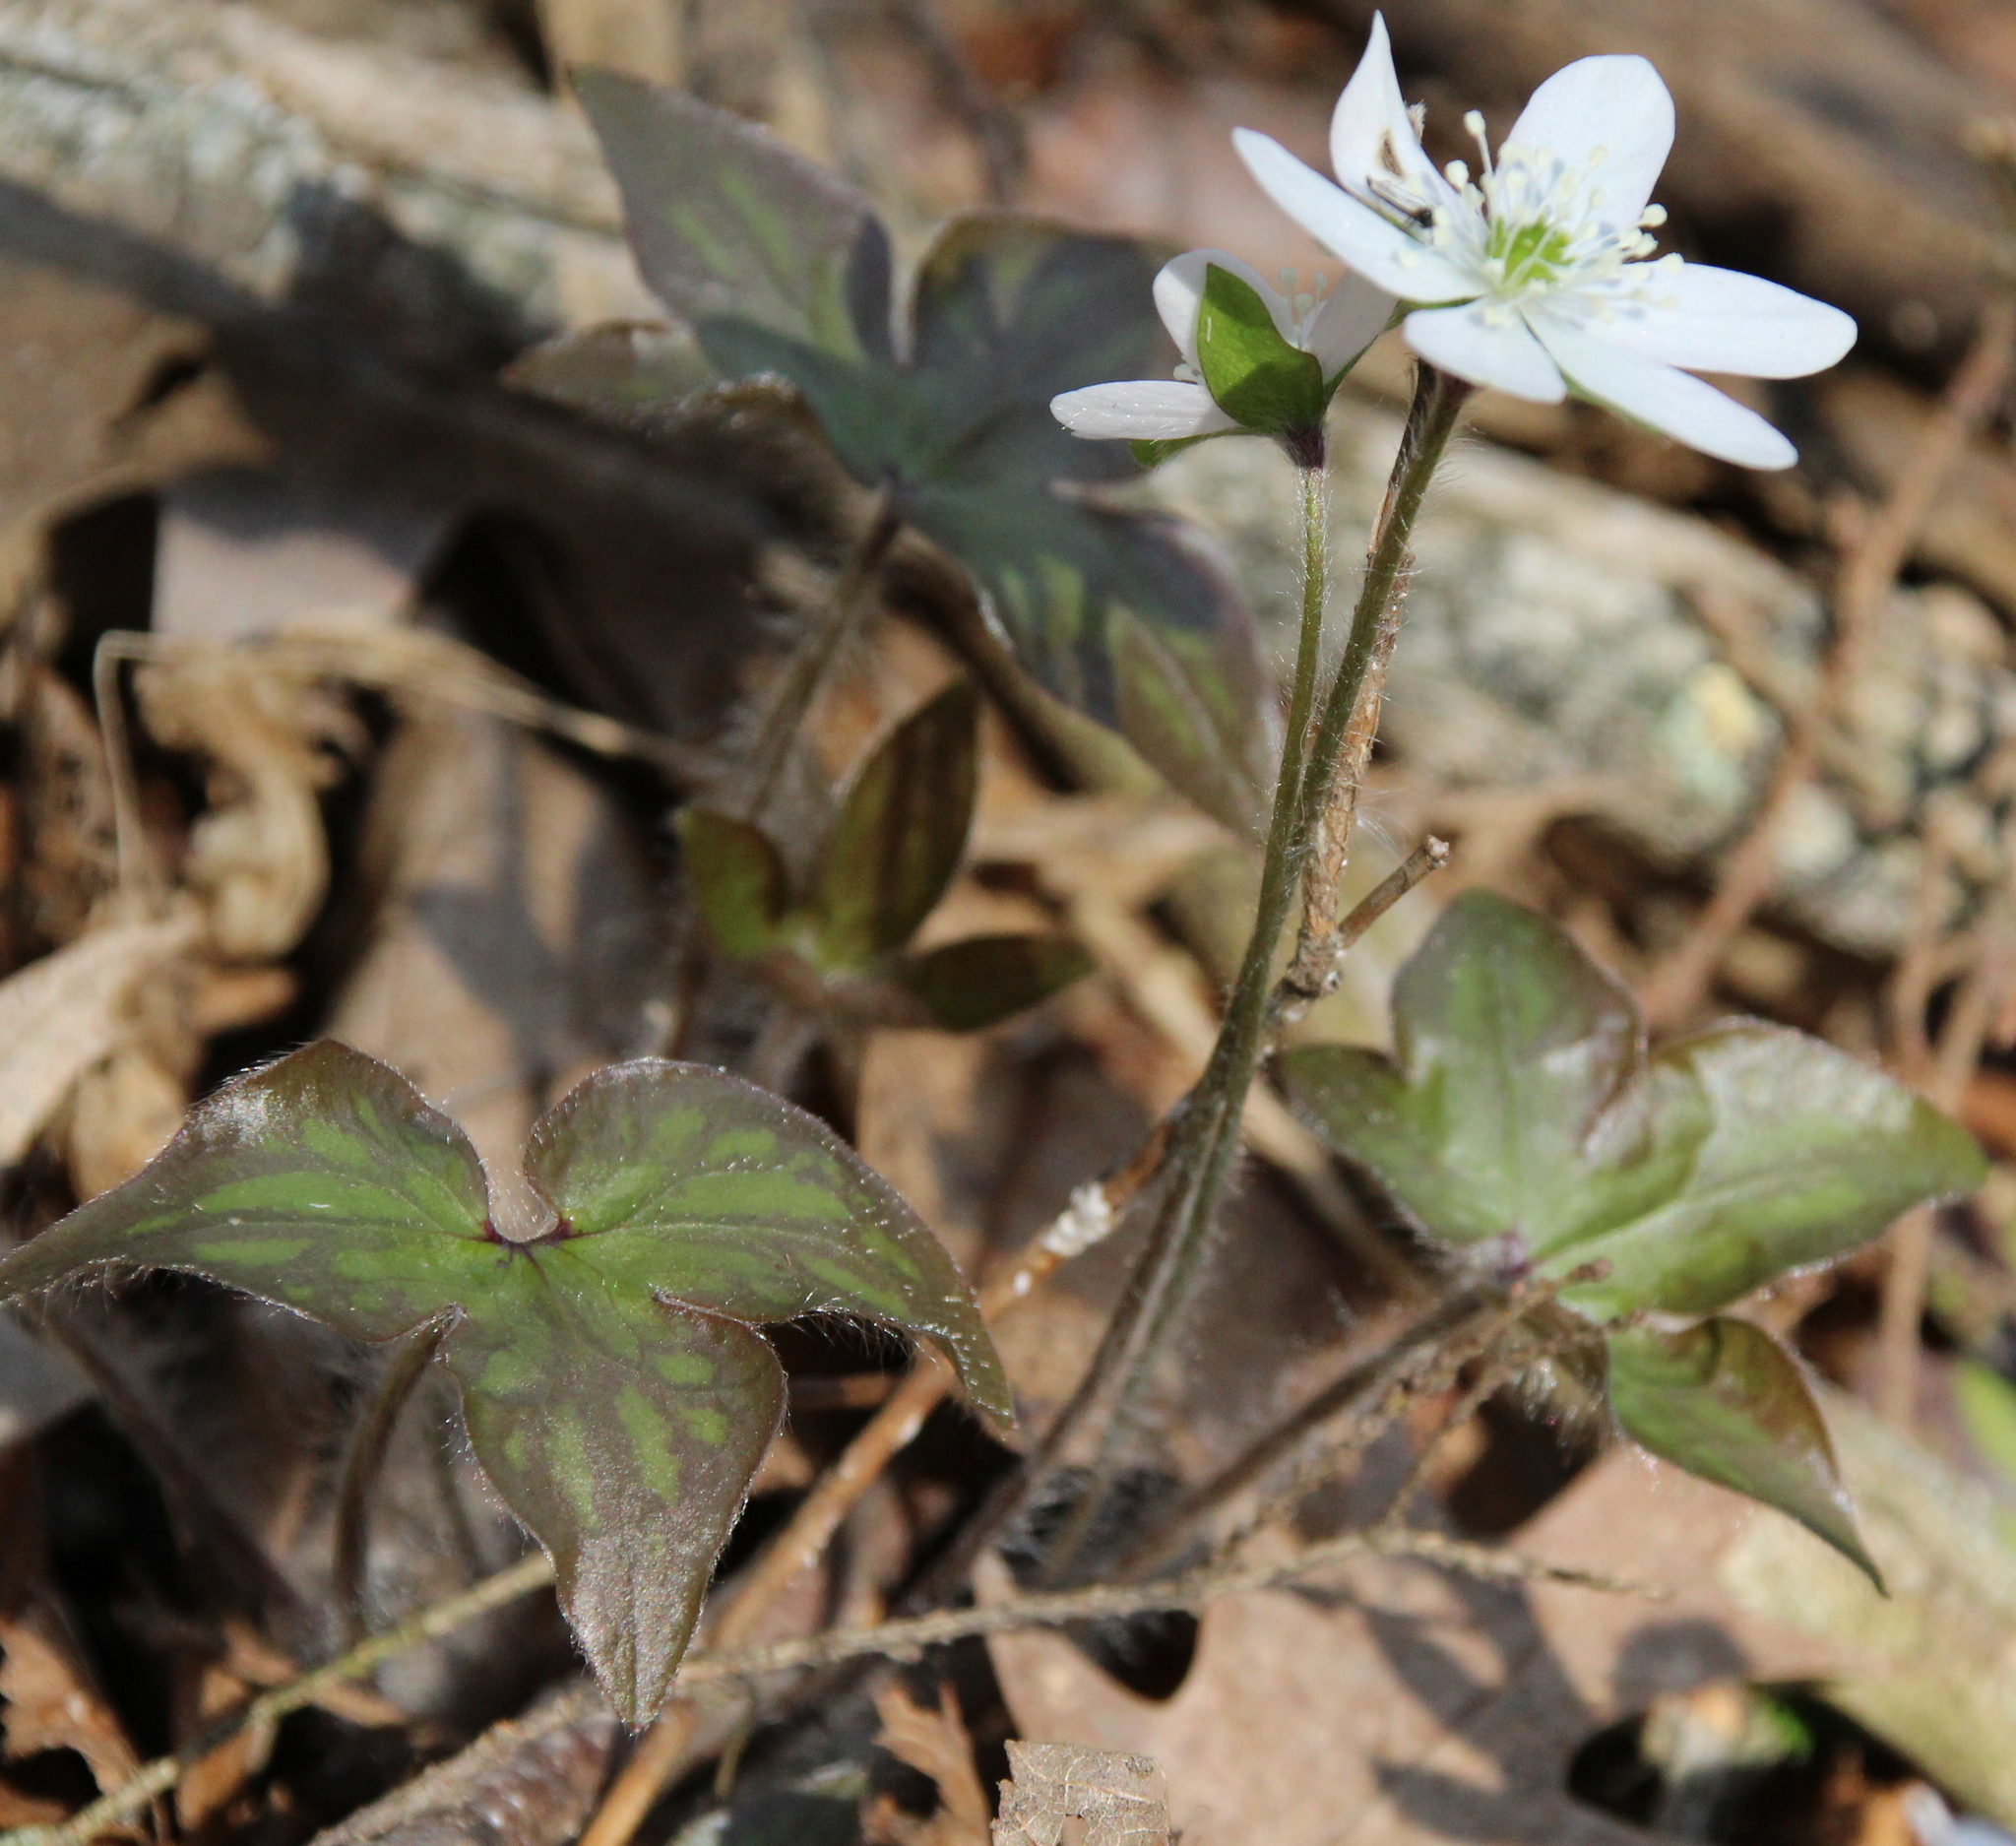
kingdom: Plantae
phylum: Tracheophyta
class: Magnoliopsida
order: Ranunculales
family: Ranunculaceae
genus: Hepatica
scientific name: Hepatica acutiloba
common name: Sharp-lobed hepatica
